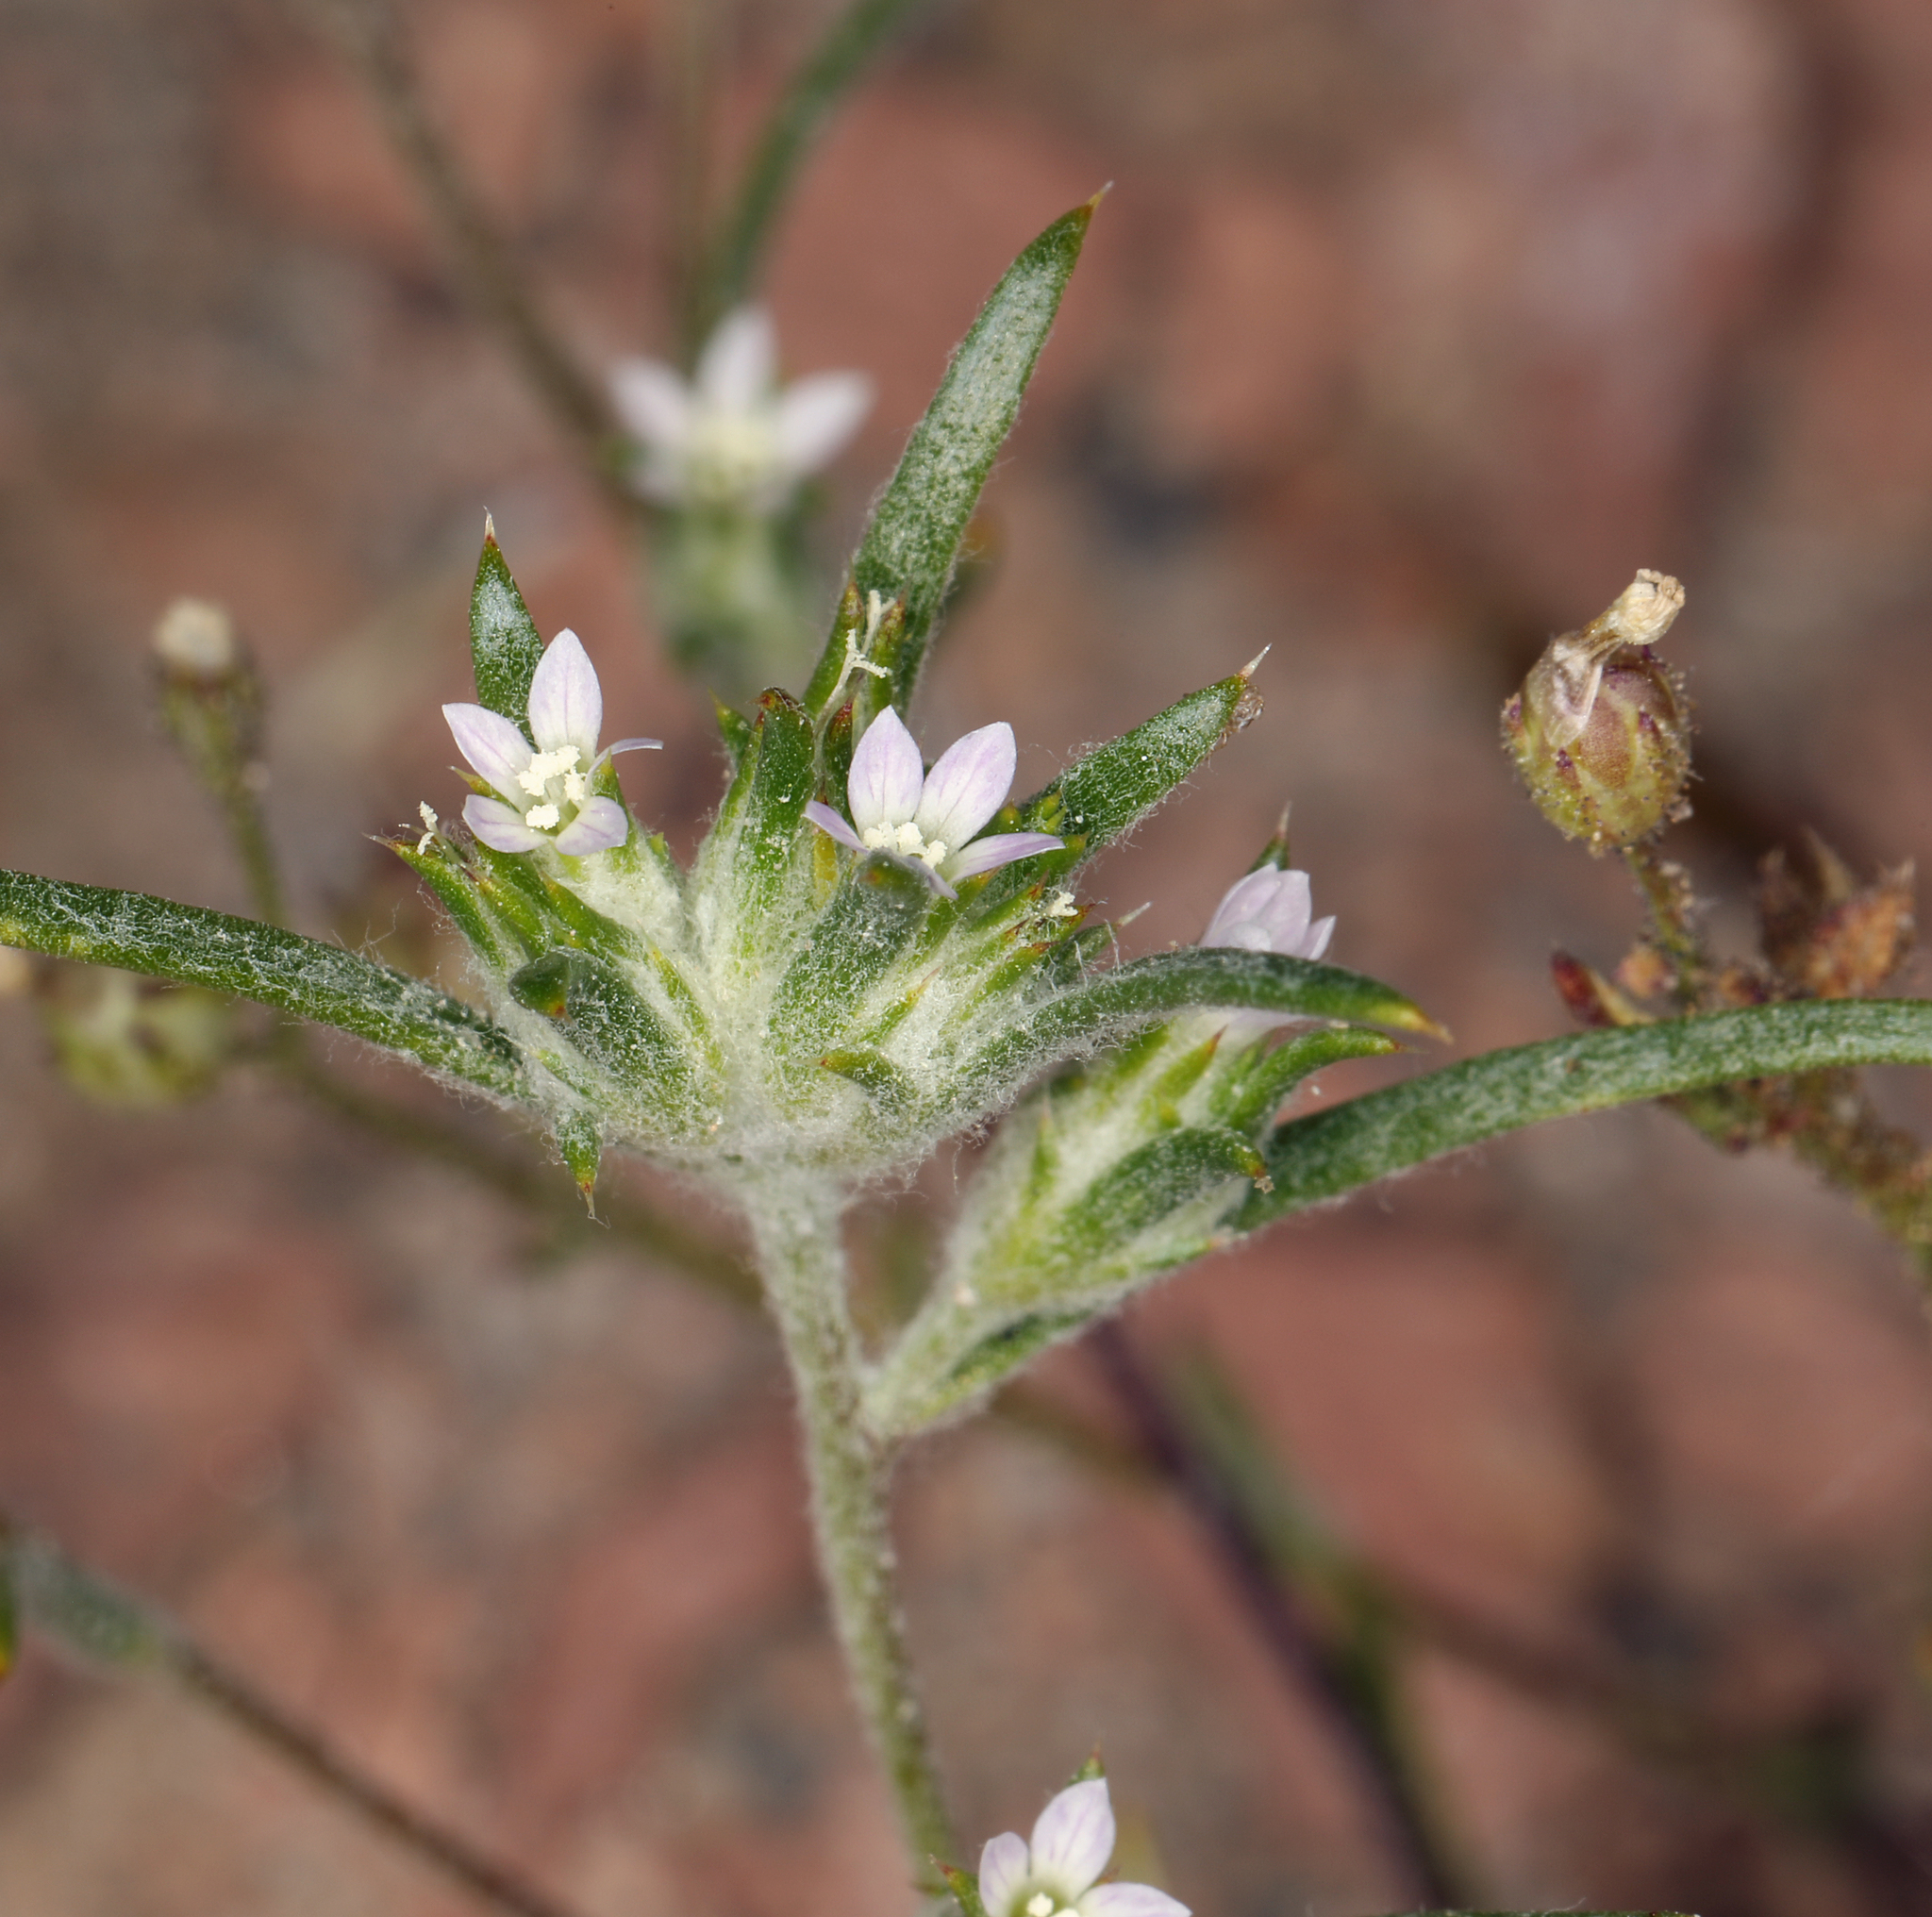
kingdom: Plantae
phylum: Tracheophyta
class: Magnoliopsida
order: Ericales
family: Polemoniaceae
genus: Eriastrum
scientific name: Eriastrum rosamondense
